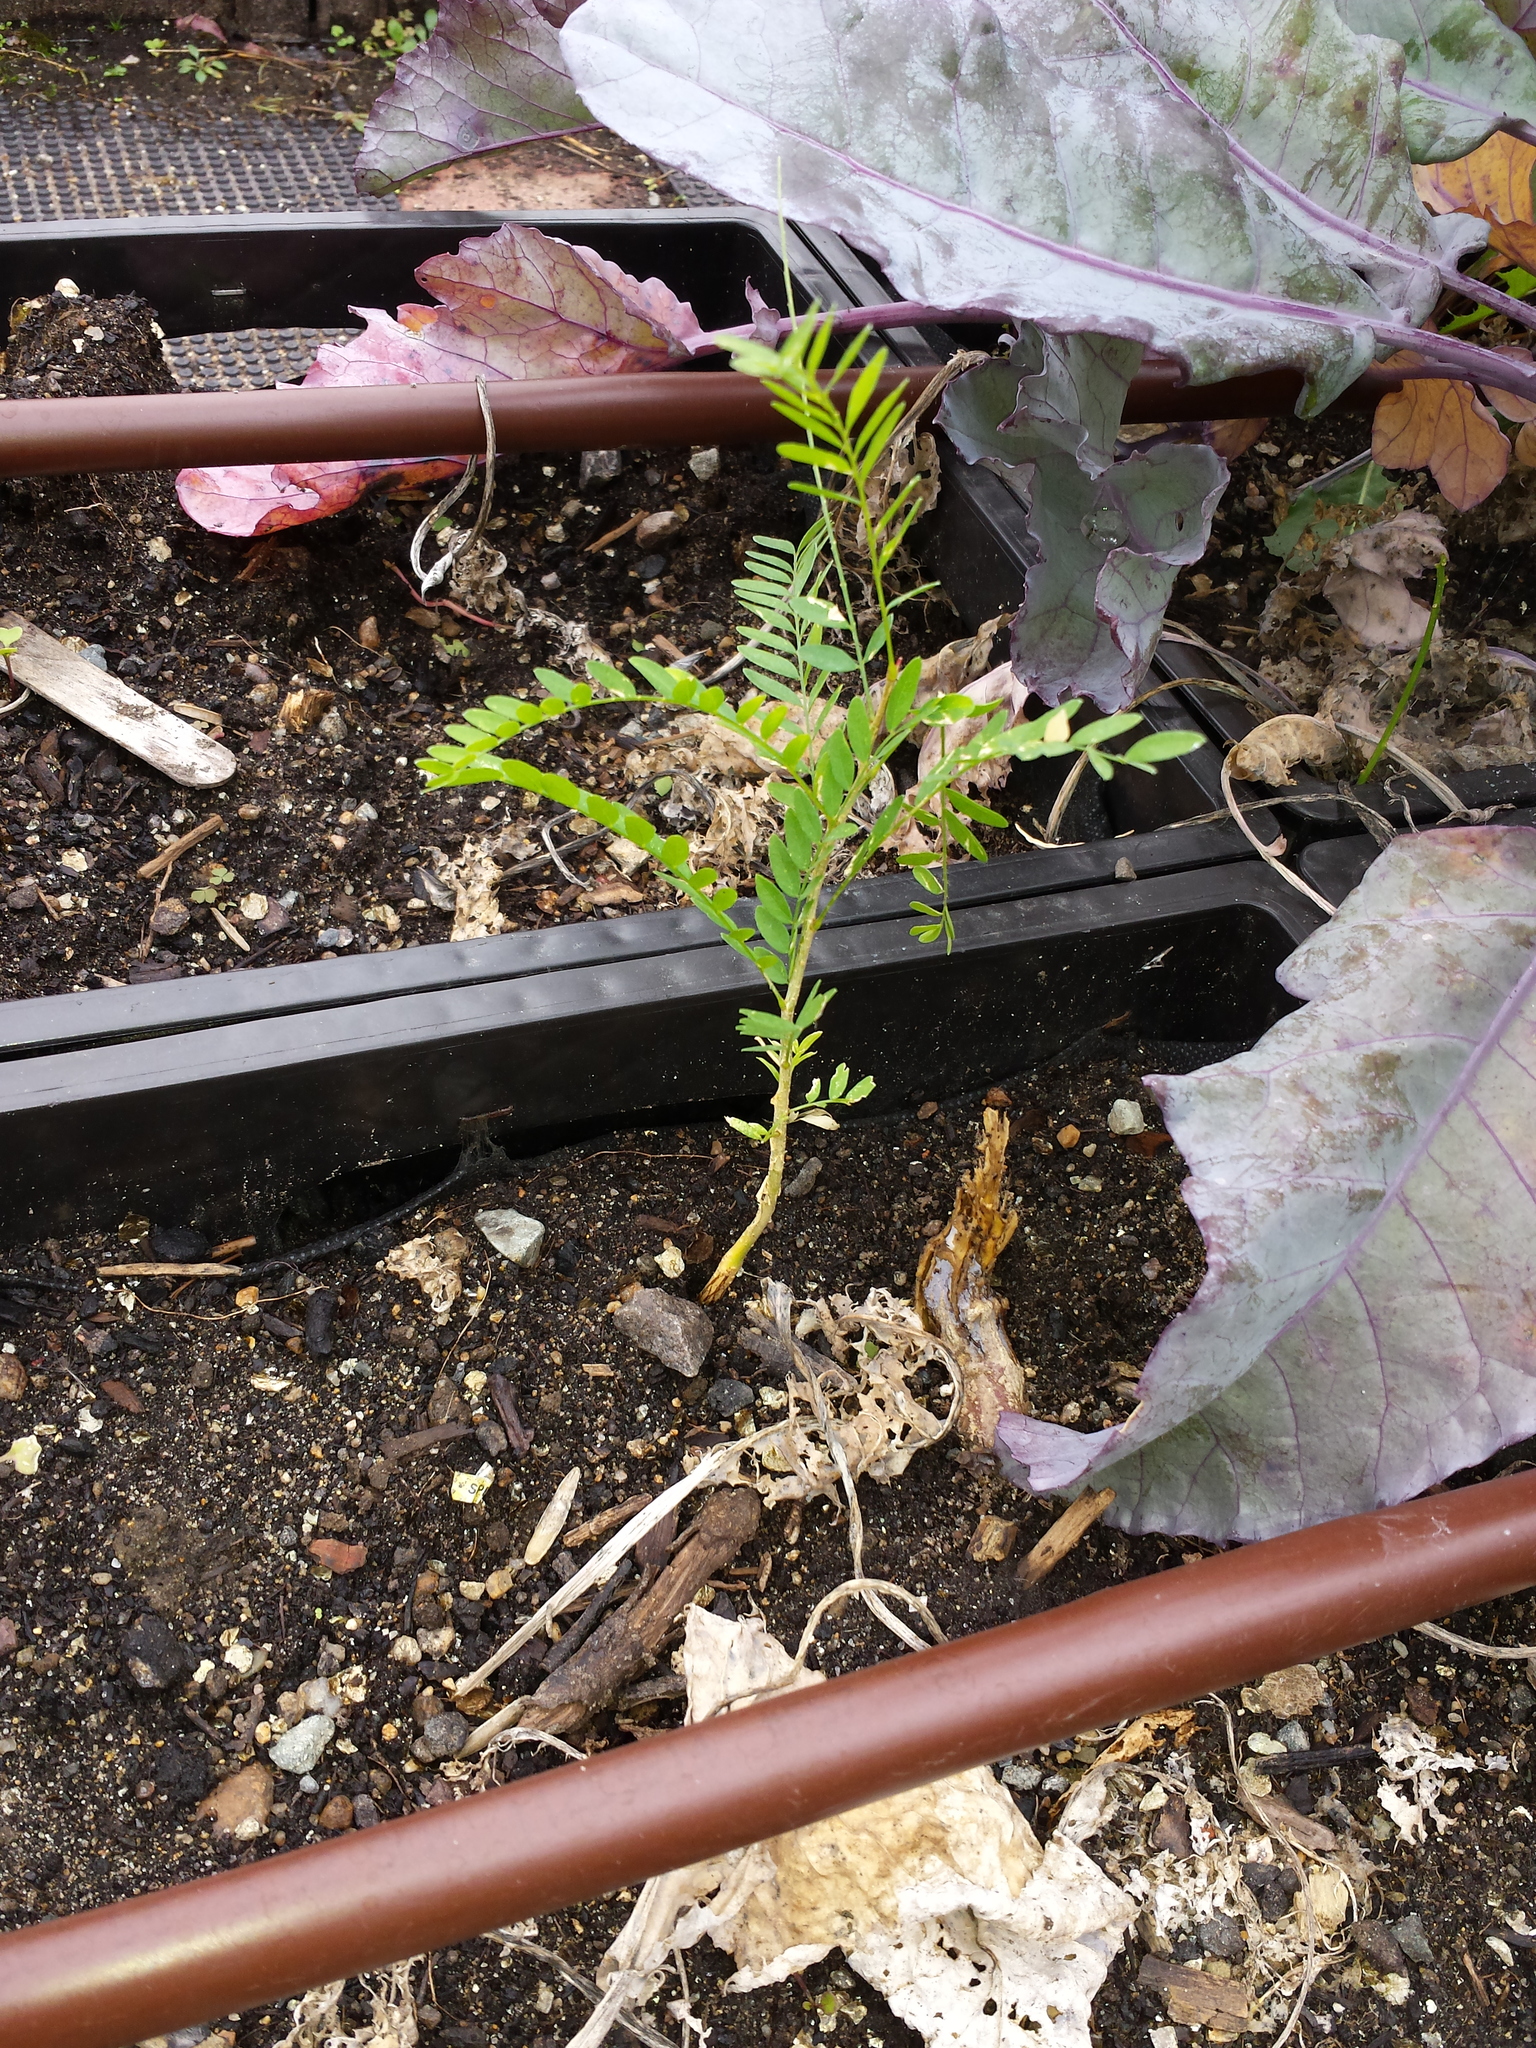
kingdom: Plantae
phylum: Tracheophyta
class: Magnoliopsida
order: Fabales
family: Fabaceae
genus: Gleditsia
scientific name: Gleditsia triacanthos
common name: Common honeylocust
